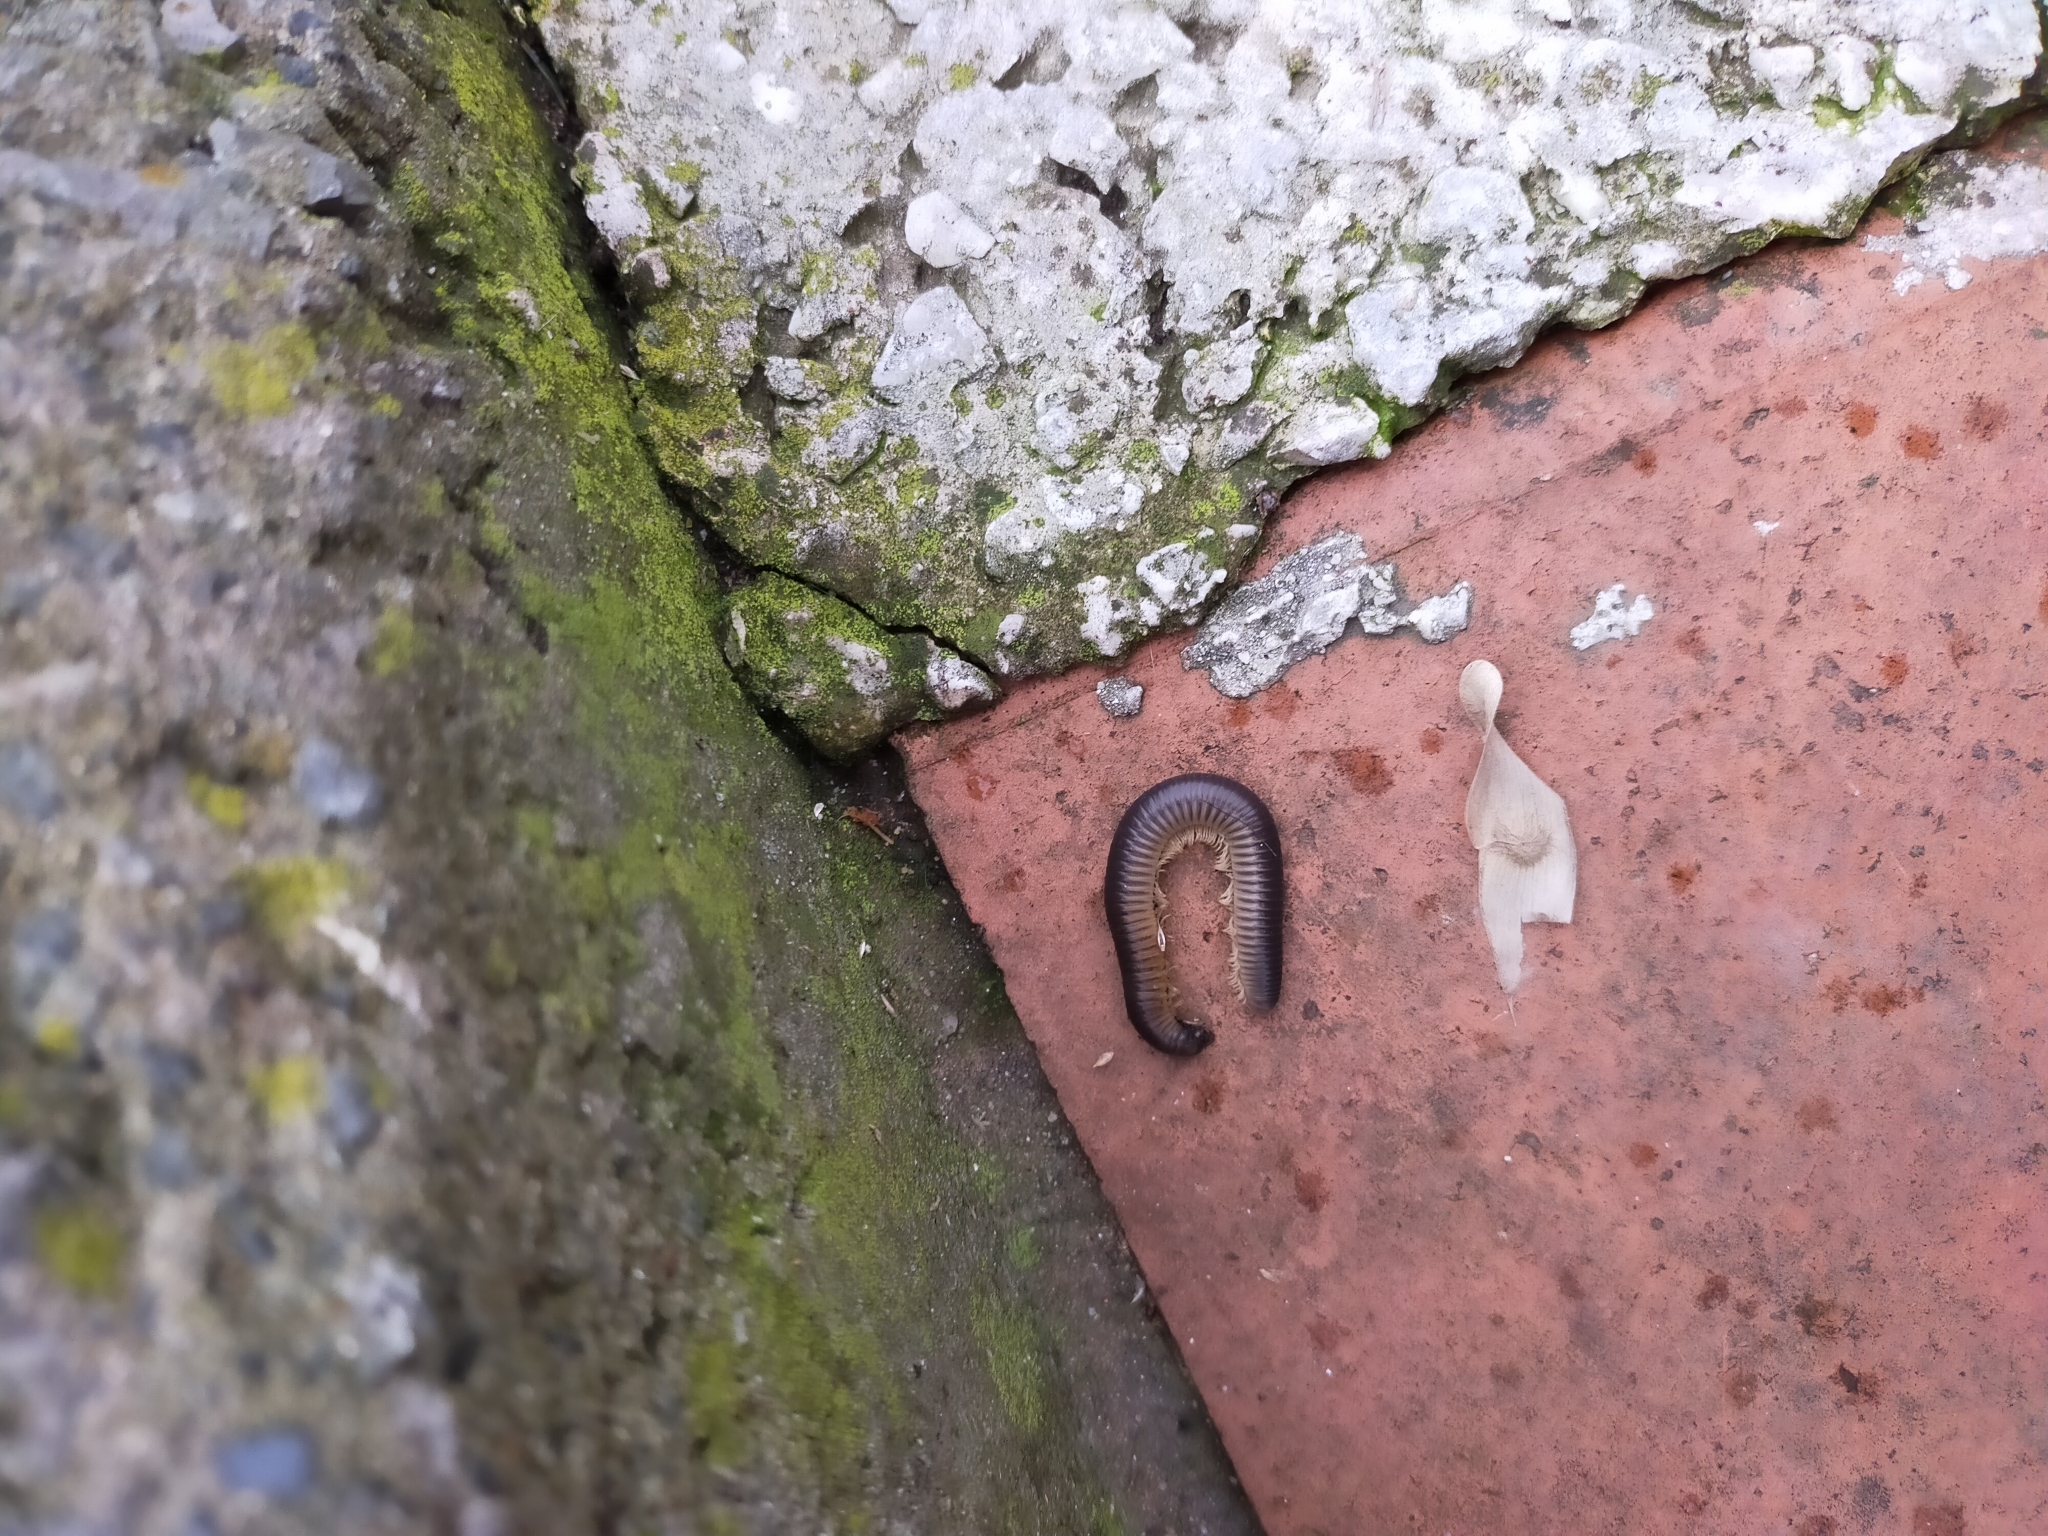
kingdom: Animalia
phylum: Arthropoda
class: Diplopoda
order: Julida
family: Julidae
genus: Pachyiulus
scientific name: Pachyiulus flavipes
